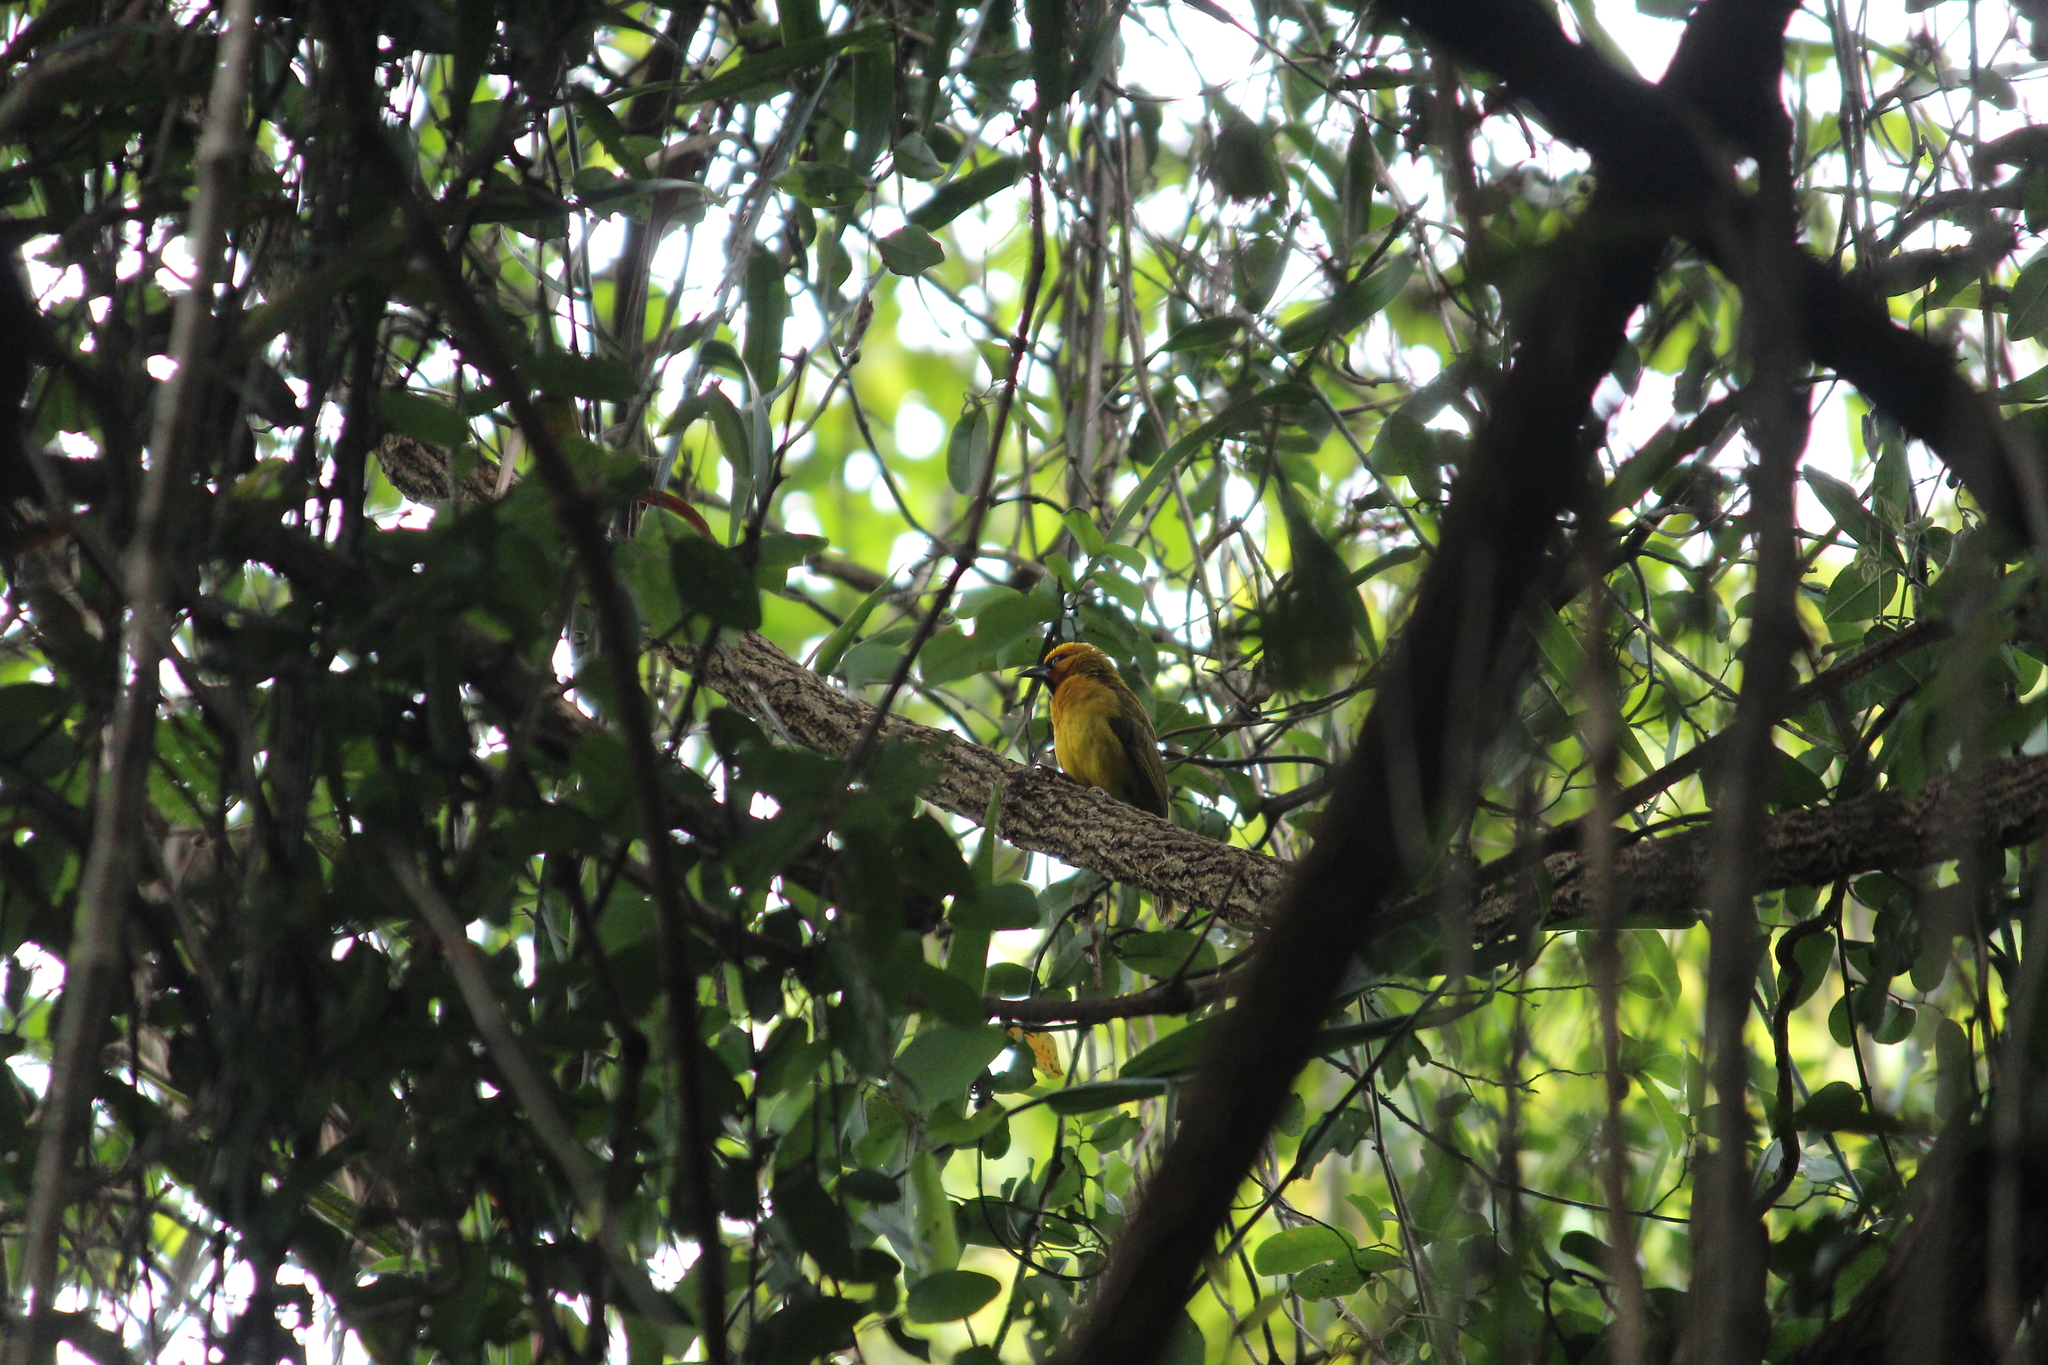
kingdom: Animalia
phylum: Chordata
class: Aves
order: Passeriformes
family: Ploceidae
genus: Ploceus
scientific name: Ploceus ocularis
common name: Spectacled weaver
